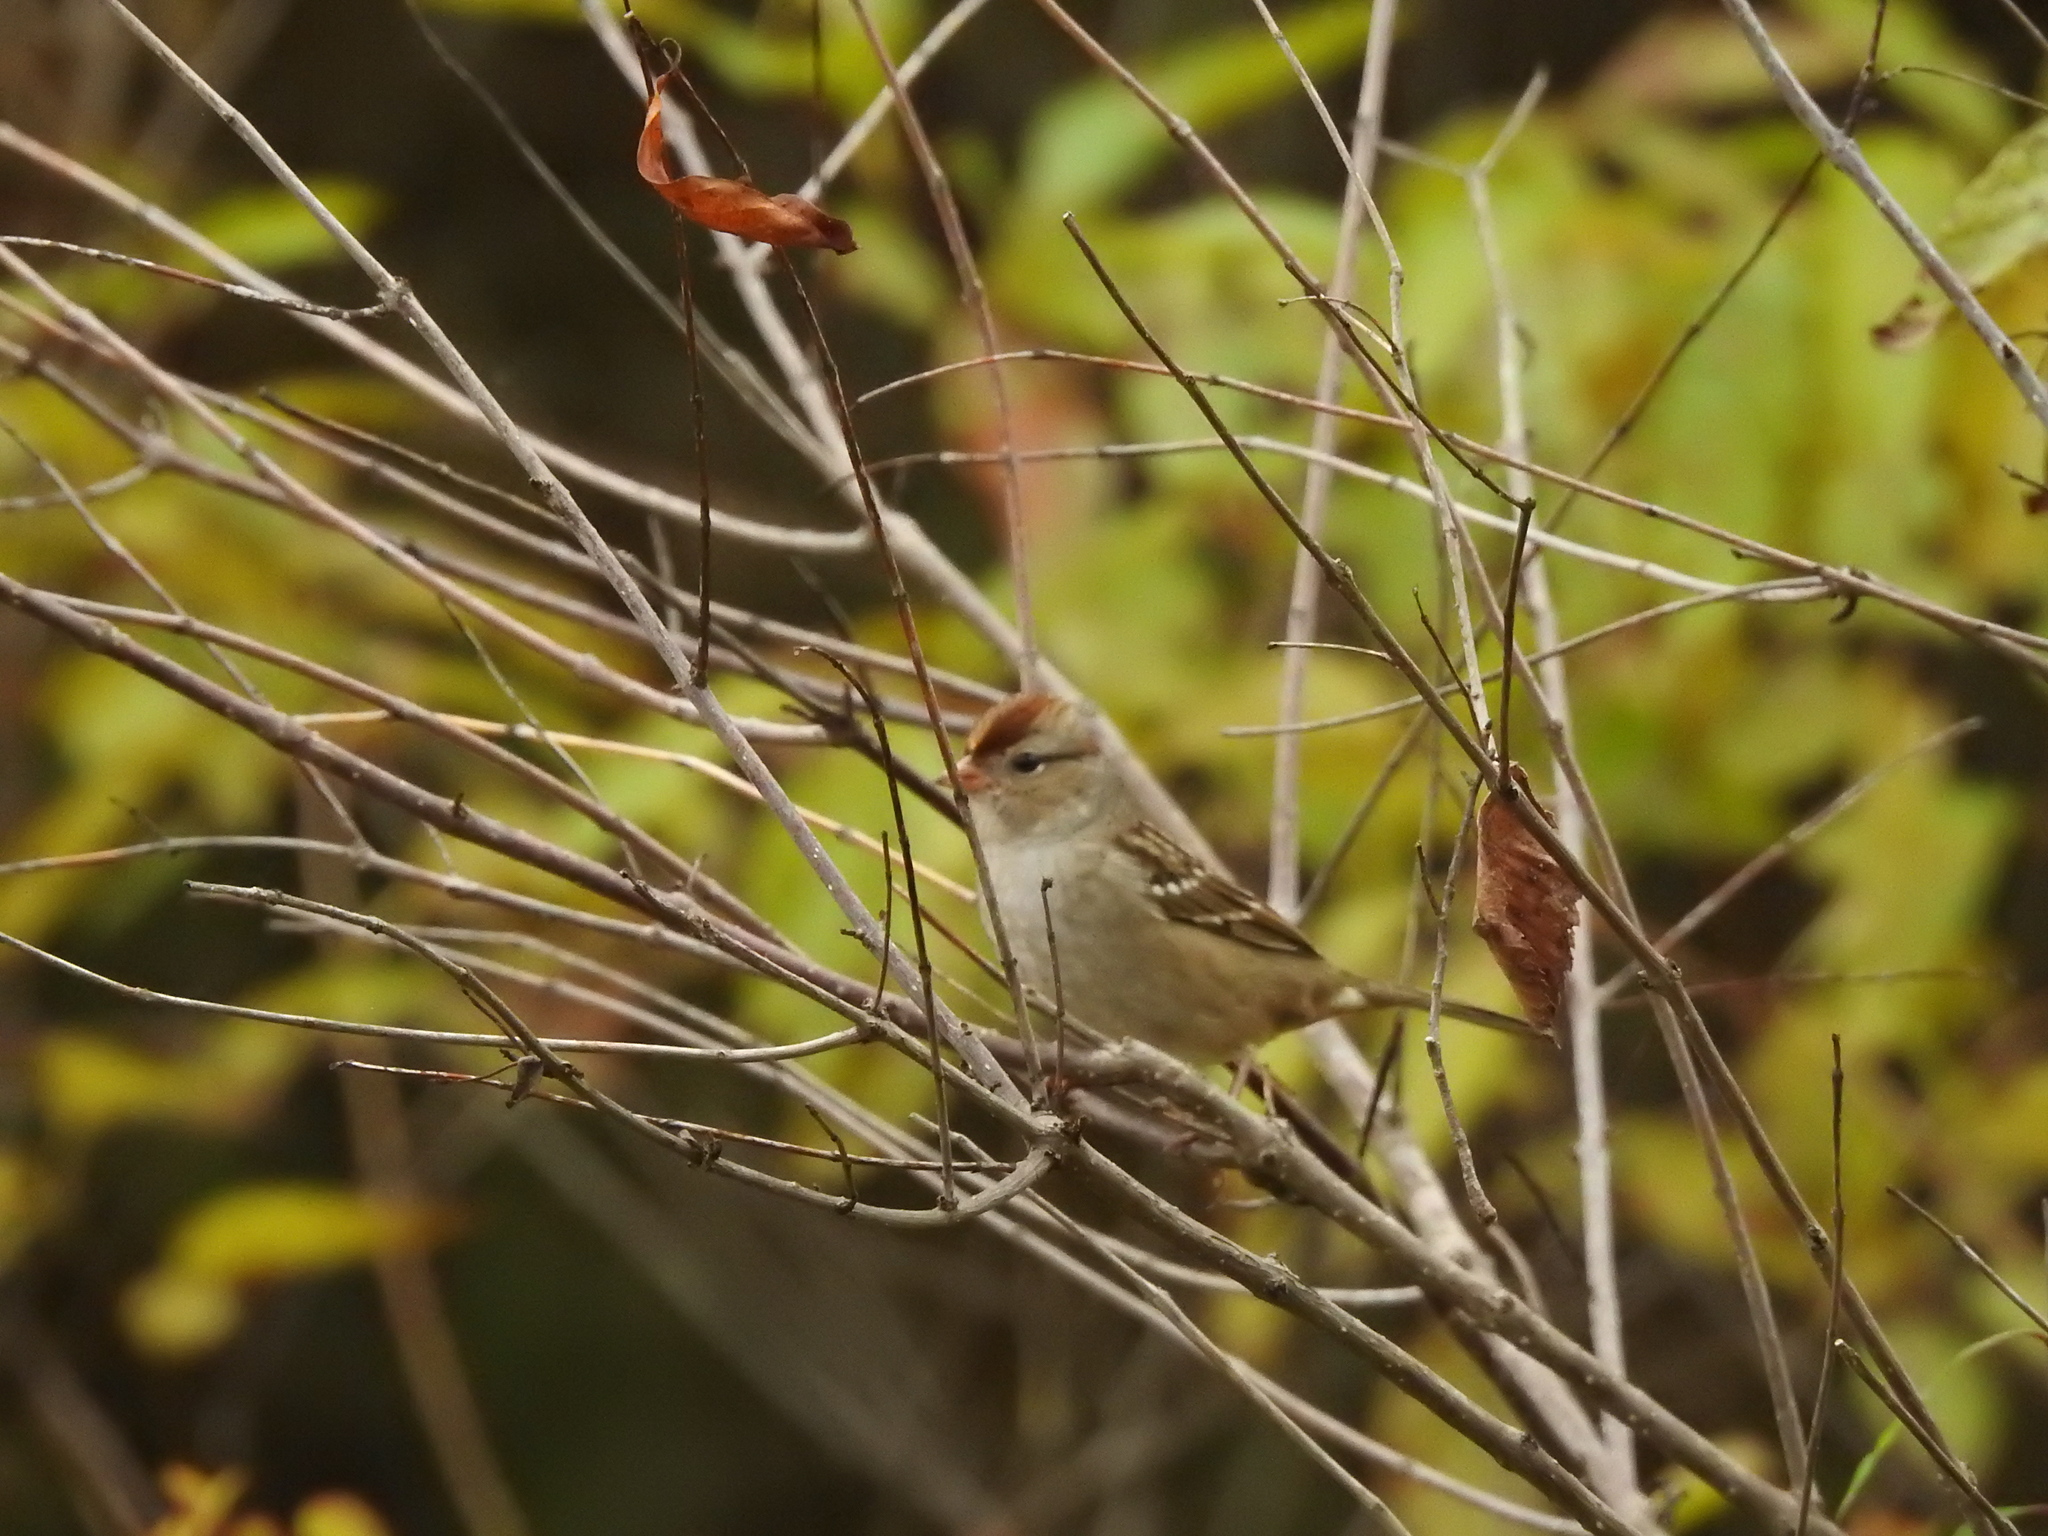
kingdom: Animalia
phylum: Chordata
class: Aves
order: Passeriformes
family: Passerellidae
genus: Zonotrichia
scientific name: Zonotrichia leucophrys
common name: White-crowned sparrow
